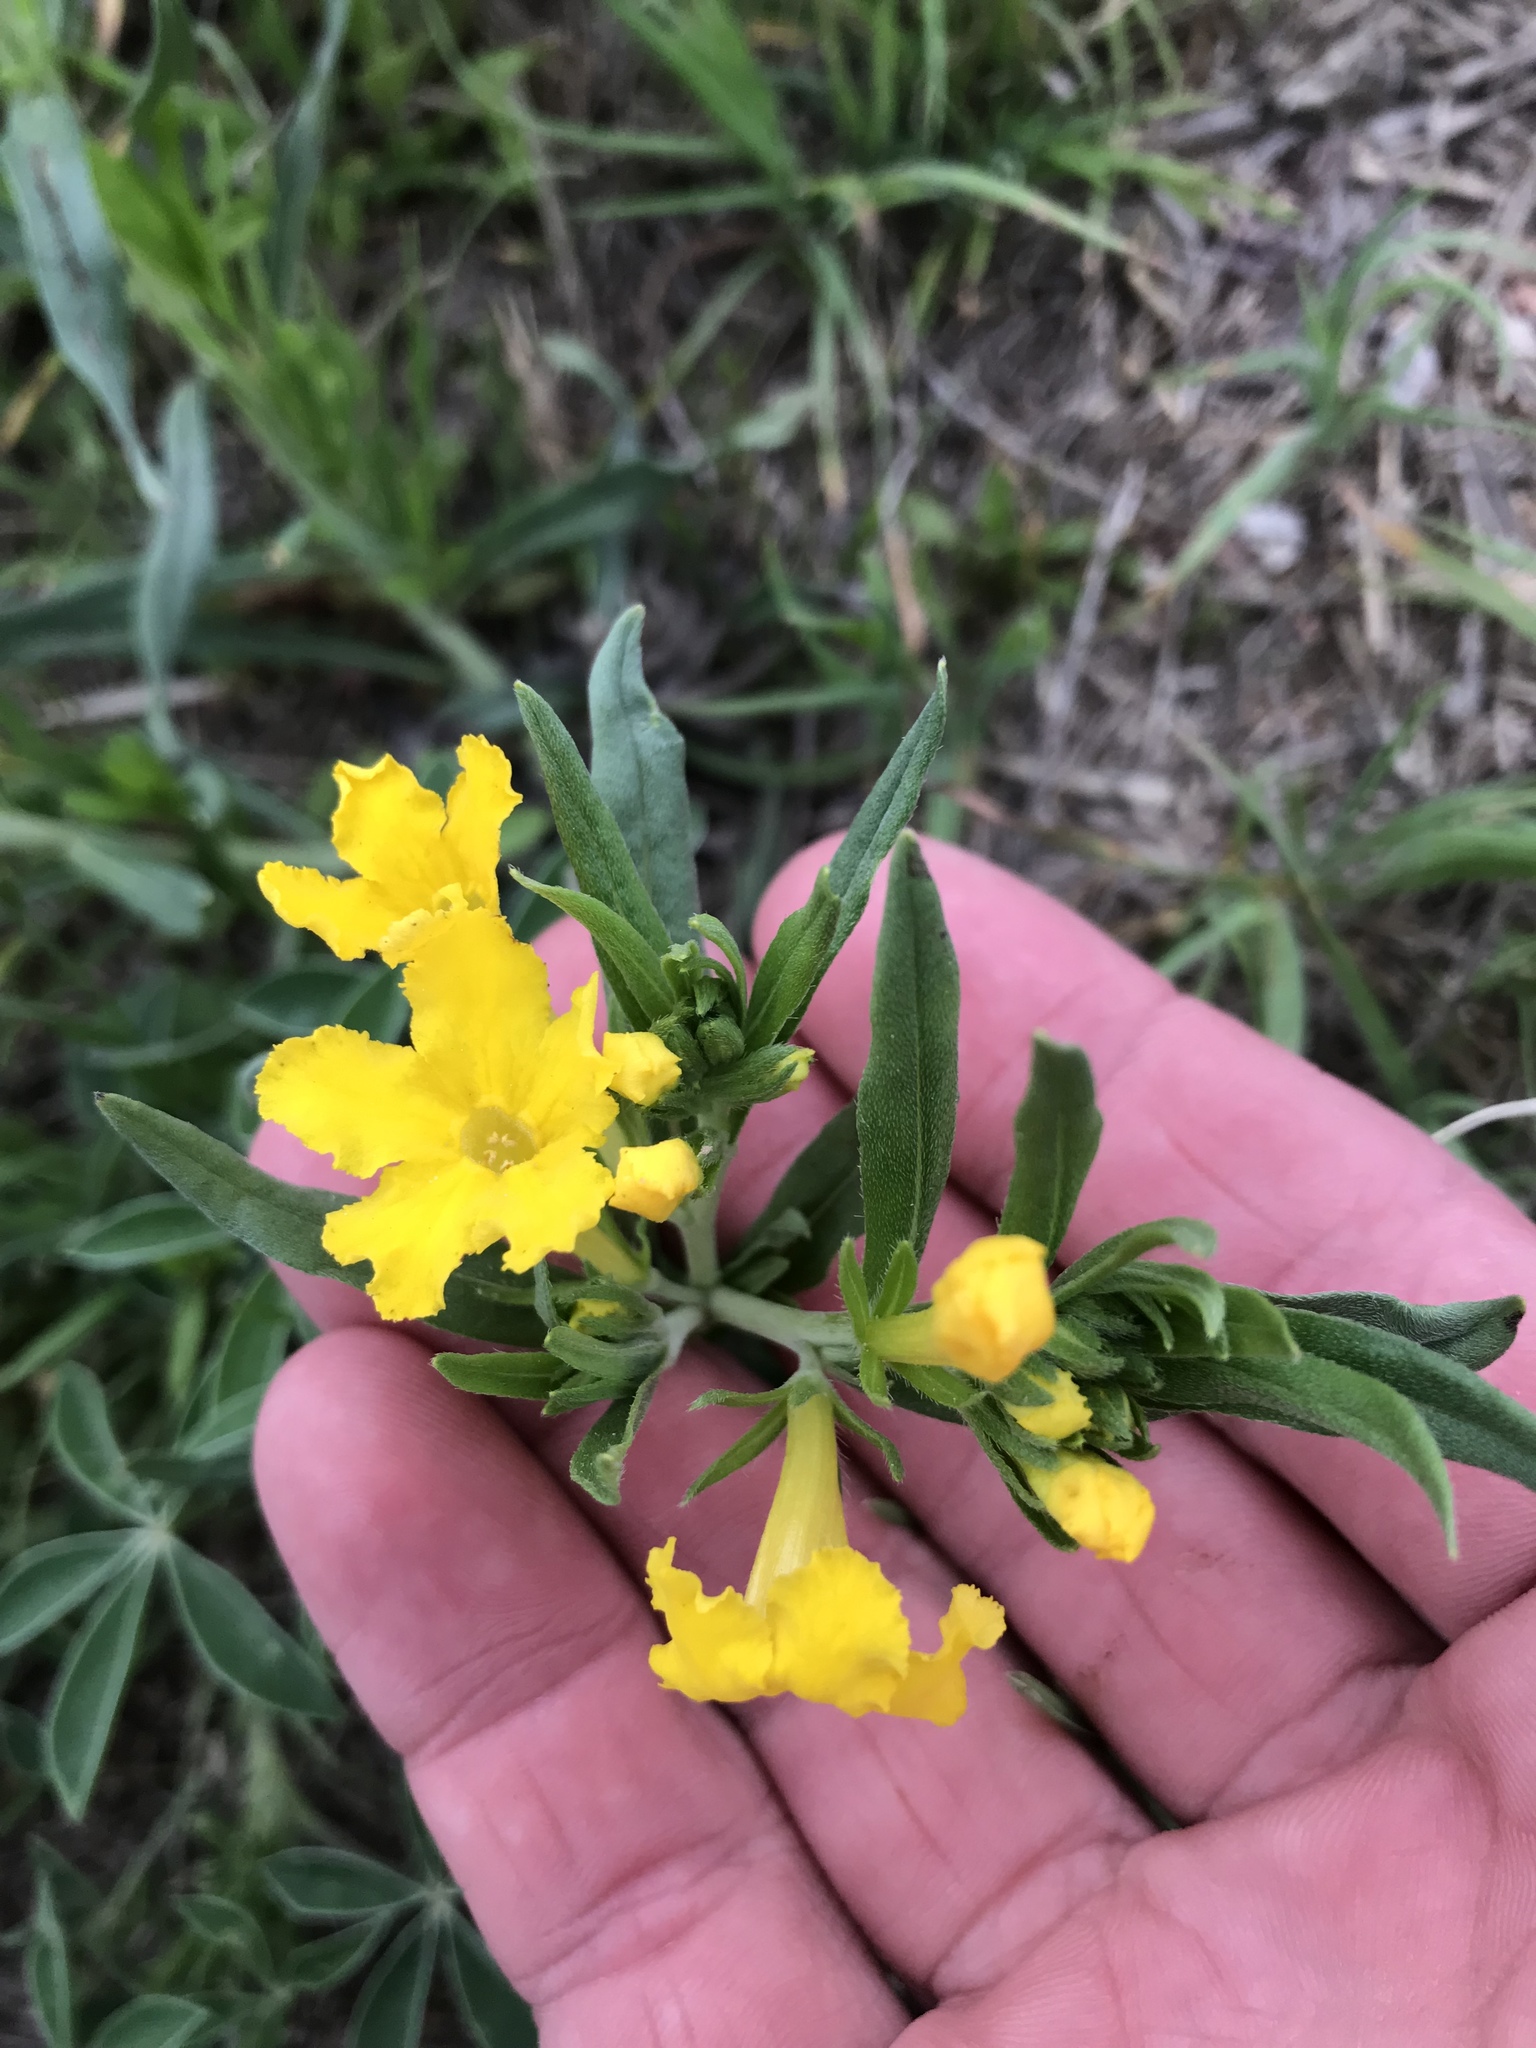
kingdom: Plantae
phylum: Tracheophyta
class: Magnoliopsida
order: Boraginales
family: Boraginaceae
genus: Lithospermum
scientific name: Lithospermum incisum
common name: Fringed gromwell
